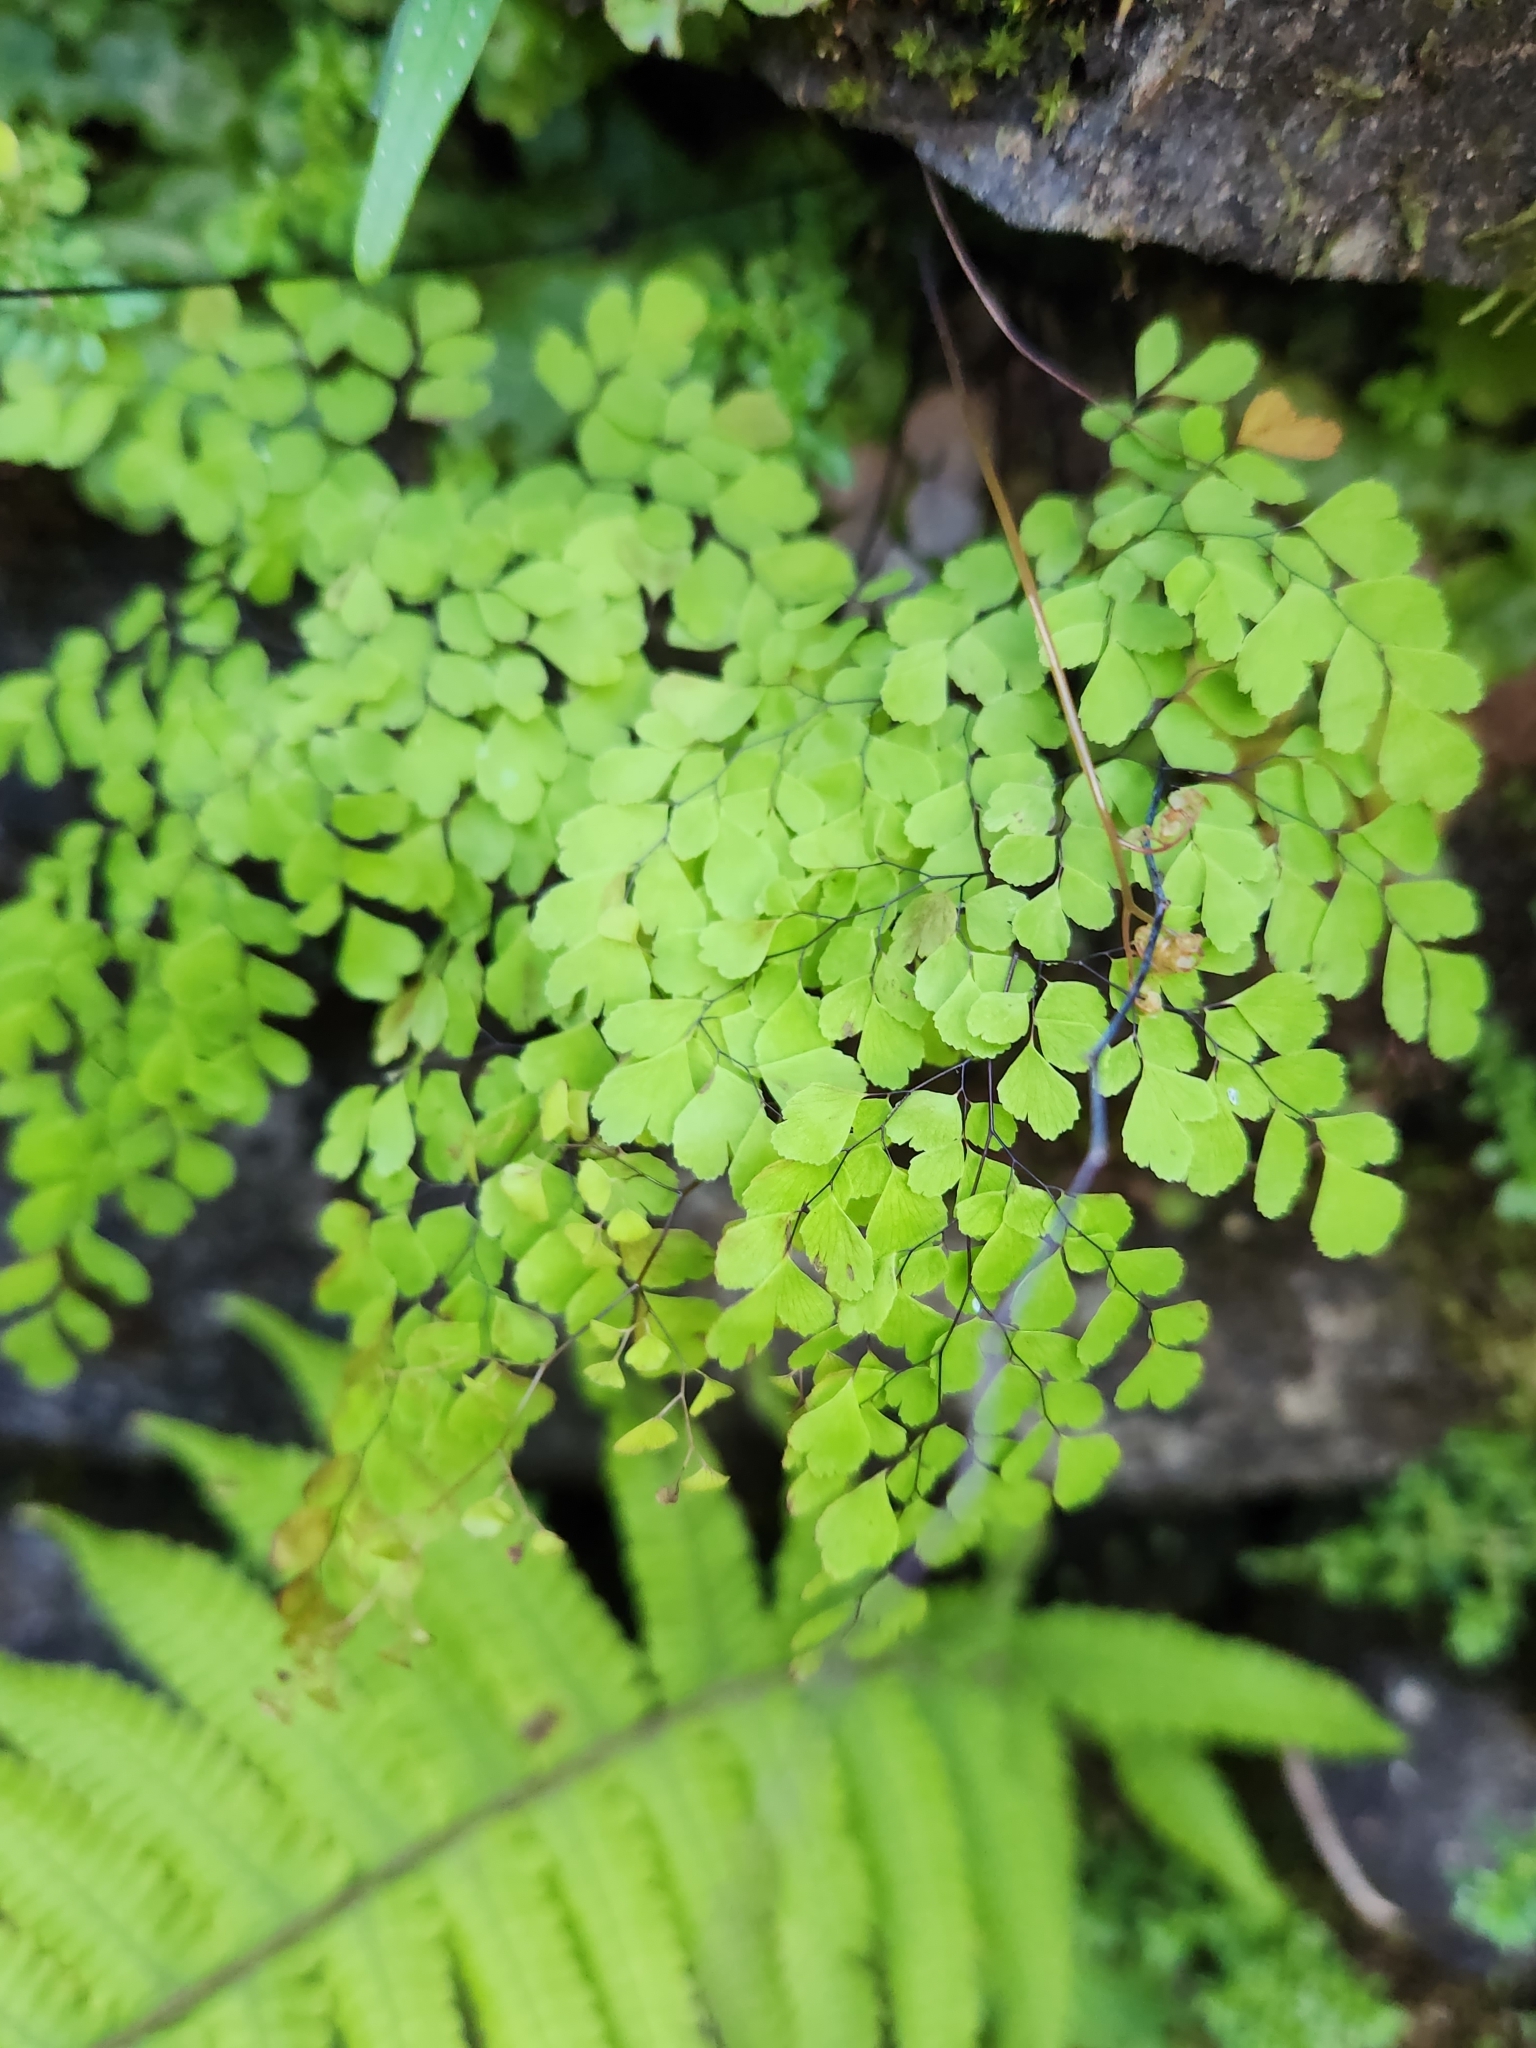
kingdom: Plantae
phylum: Tracheophyta
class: Polypodiopsida
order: Polypodiales
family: Pteridaceae
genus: Adiantum
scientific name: Adiantum raddianum
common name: Delta maidenhair fern
